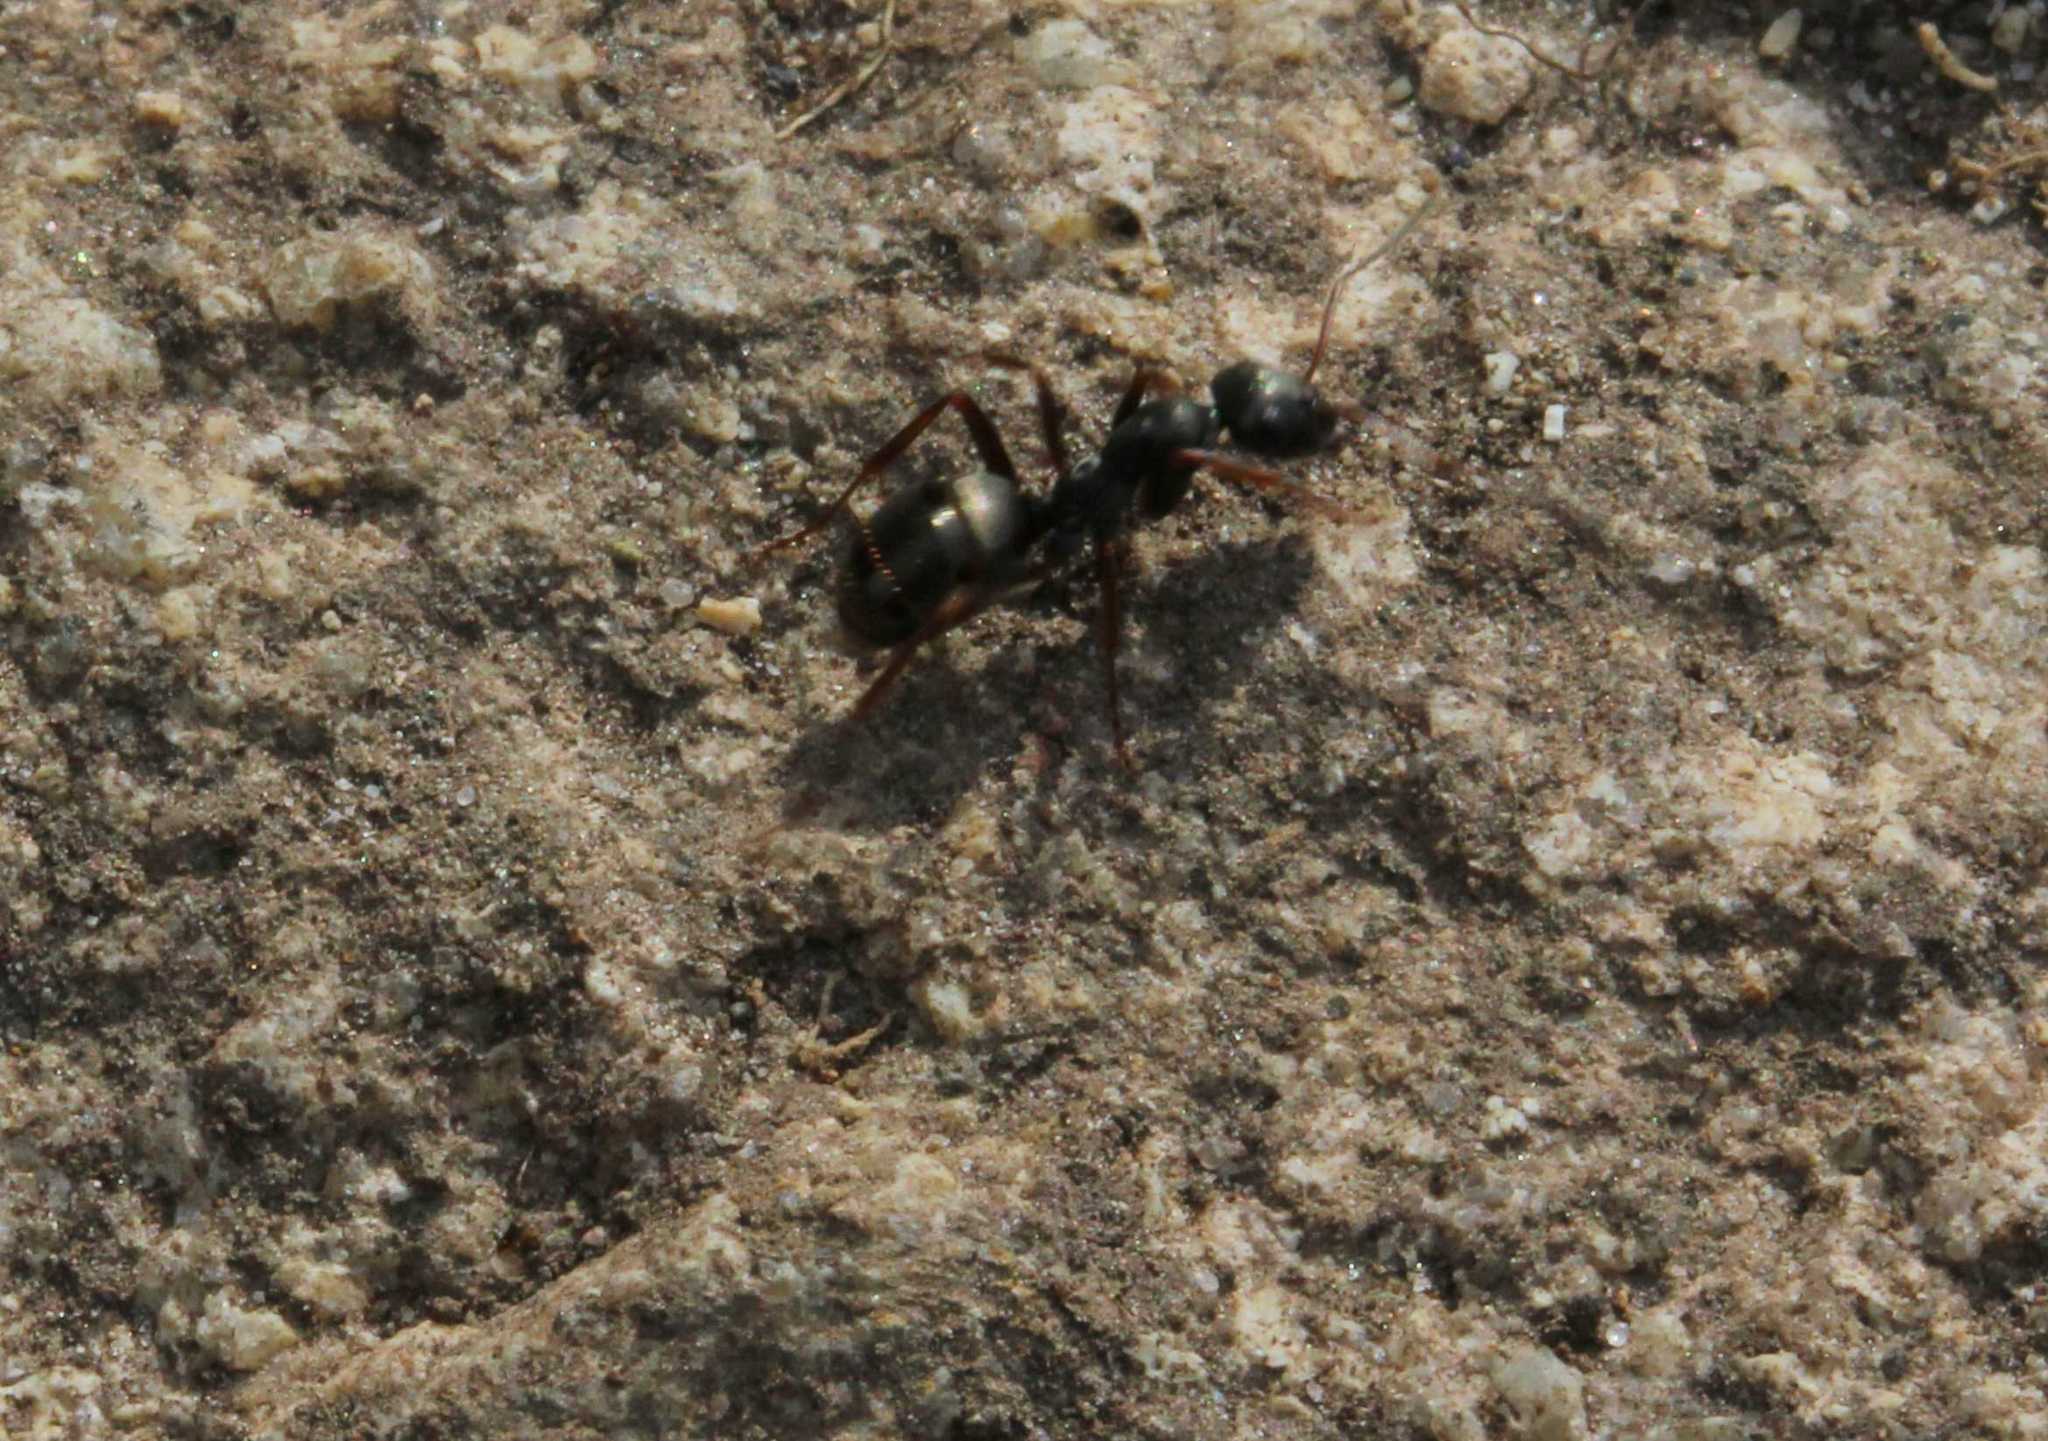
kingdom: Animalia
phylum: Arthropoda
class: Insecta
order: Hymenoptera
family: Formicidae
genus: Formica
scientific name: Formica
